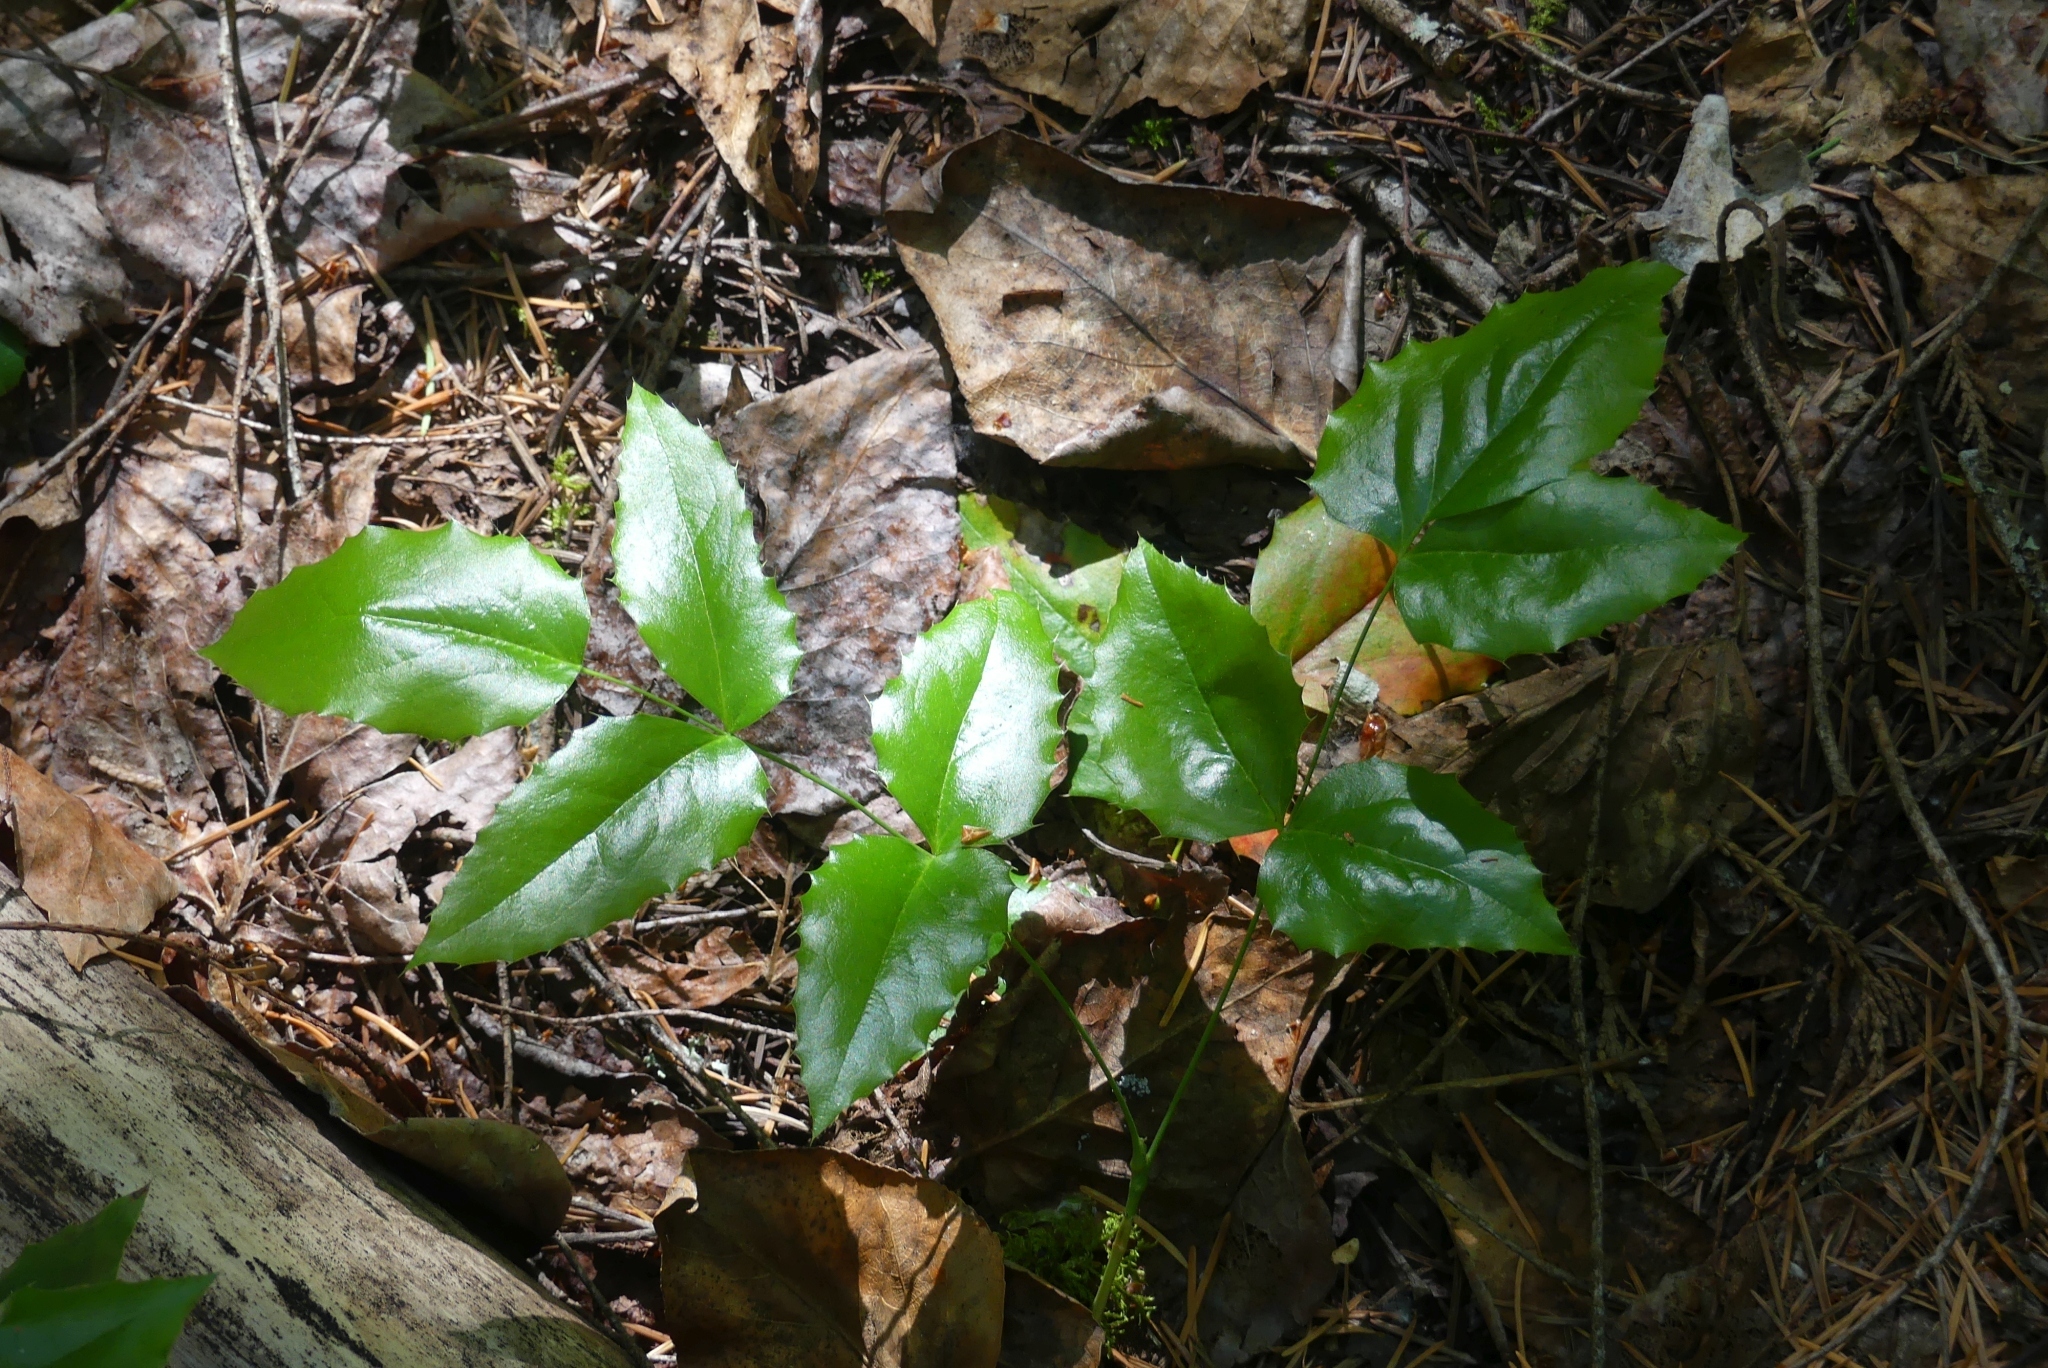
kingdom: Plantae
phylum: Tracheophyta
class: Magnoliopsida
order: Ranunculales
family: Berberidaceae
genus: Mahonia
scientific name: Mahonia aquifolium
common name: Oregon-grape
